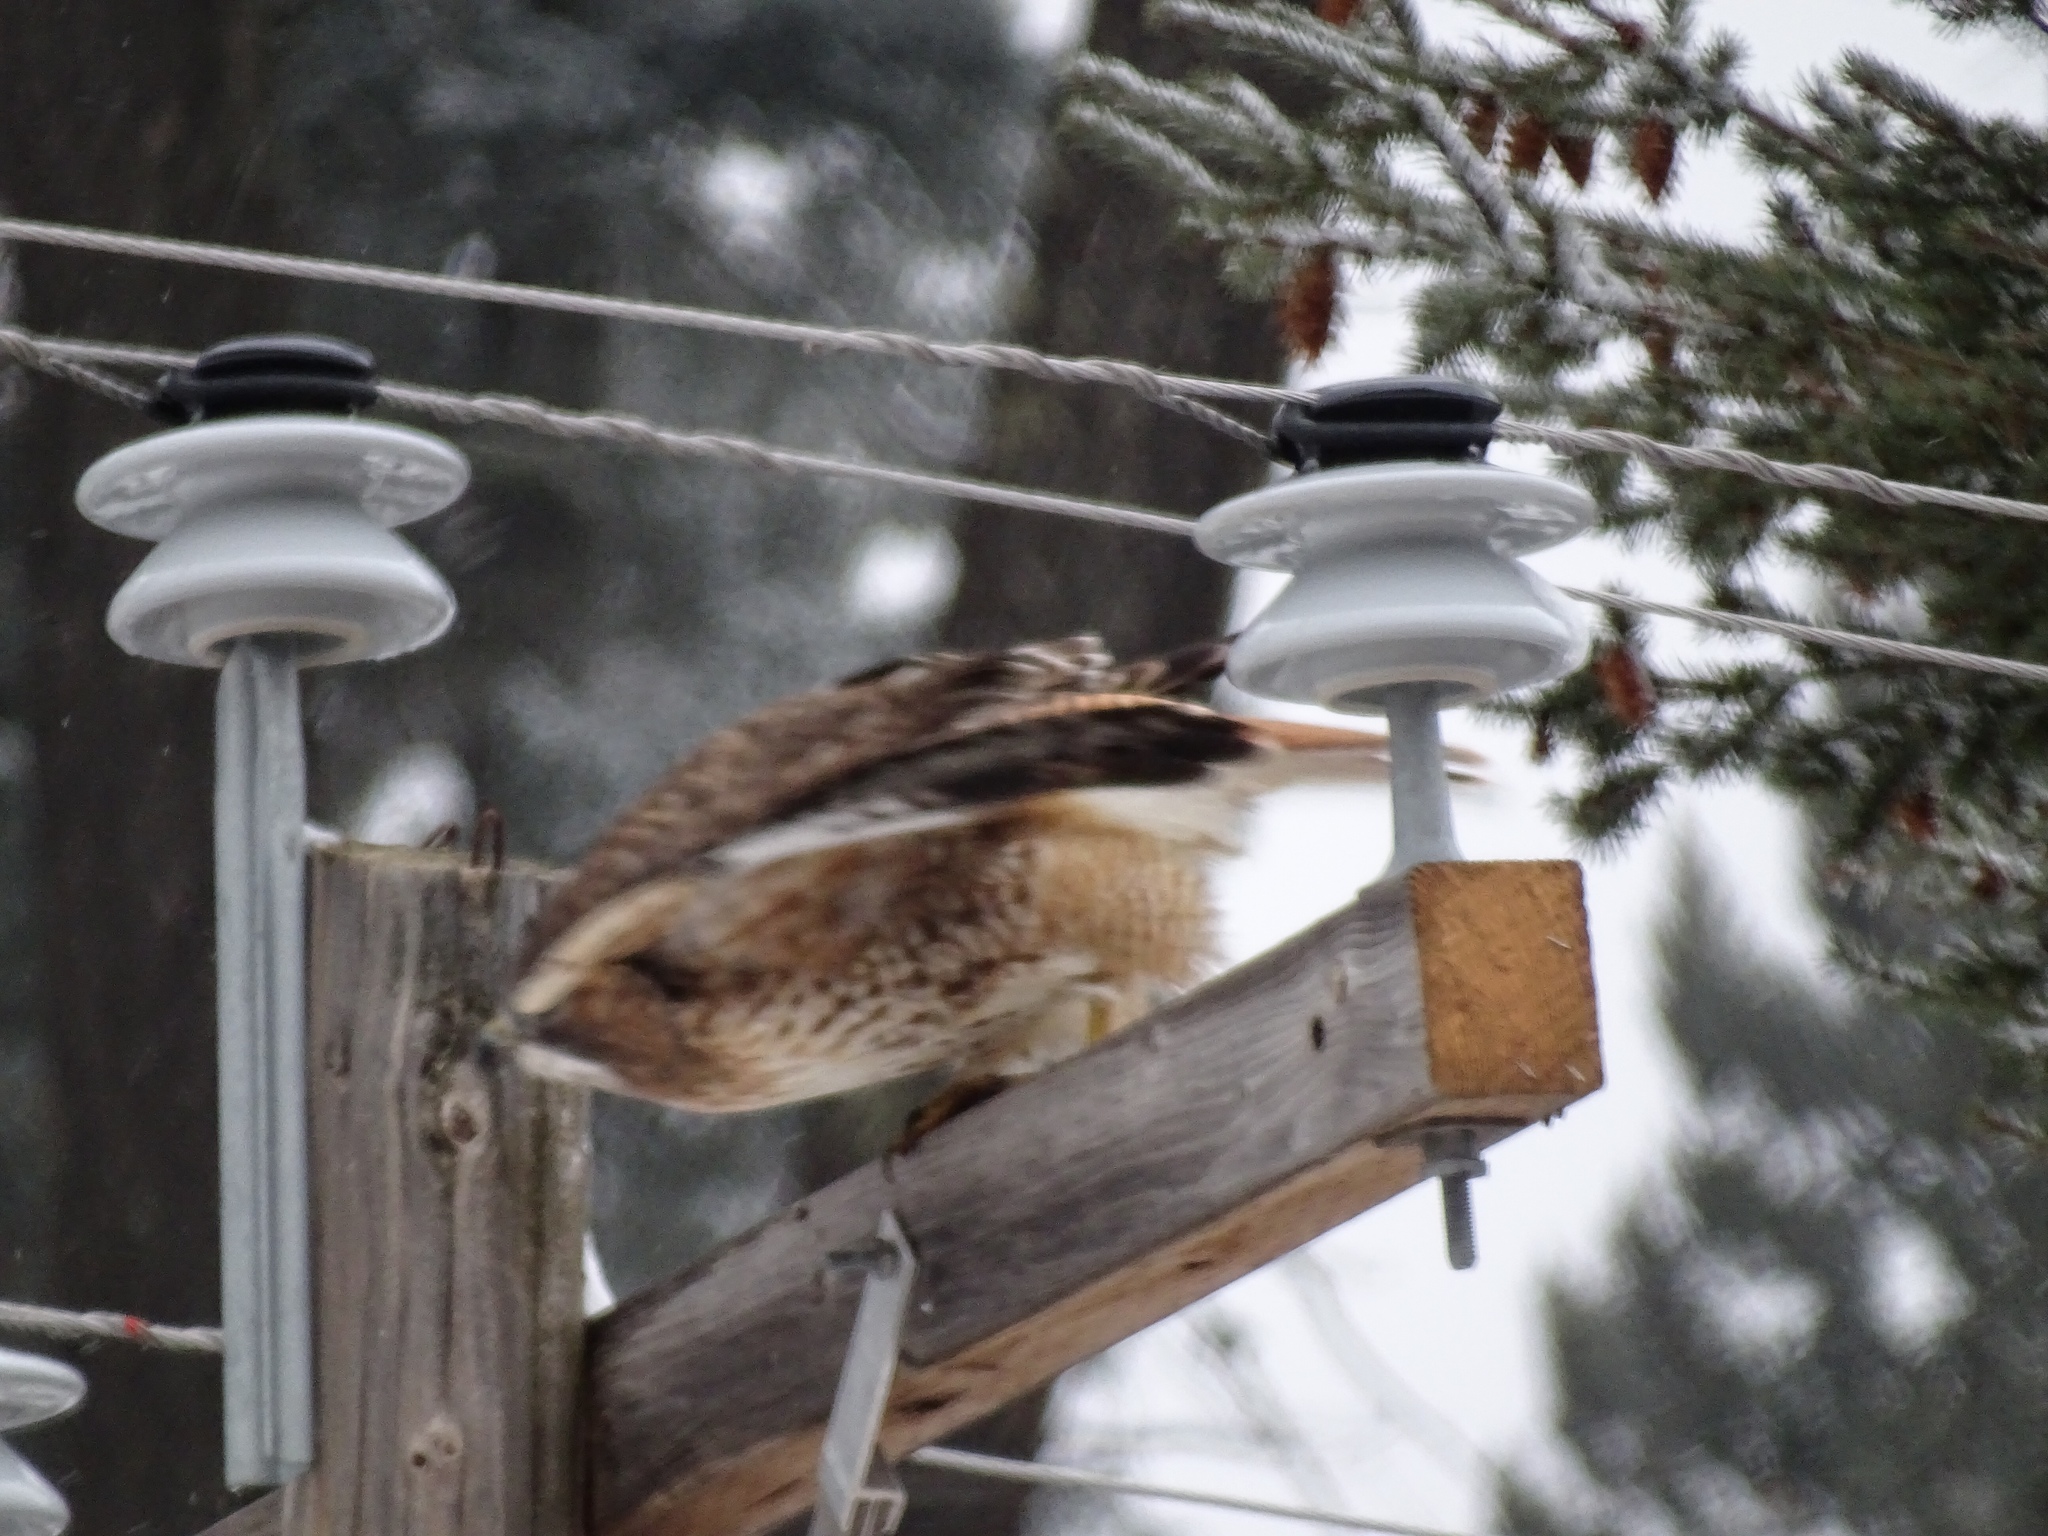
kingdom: Animalia
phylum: Chordata
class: Aves
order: Accipitriformes
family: Accipitridae
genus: Buteo
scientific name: Buteo jamaicensis
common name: Red-tailed hawk
